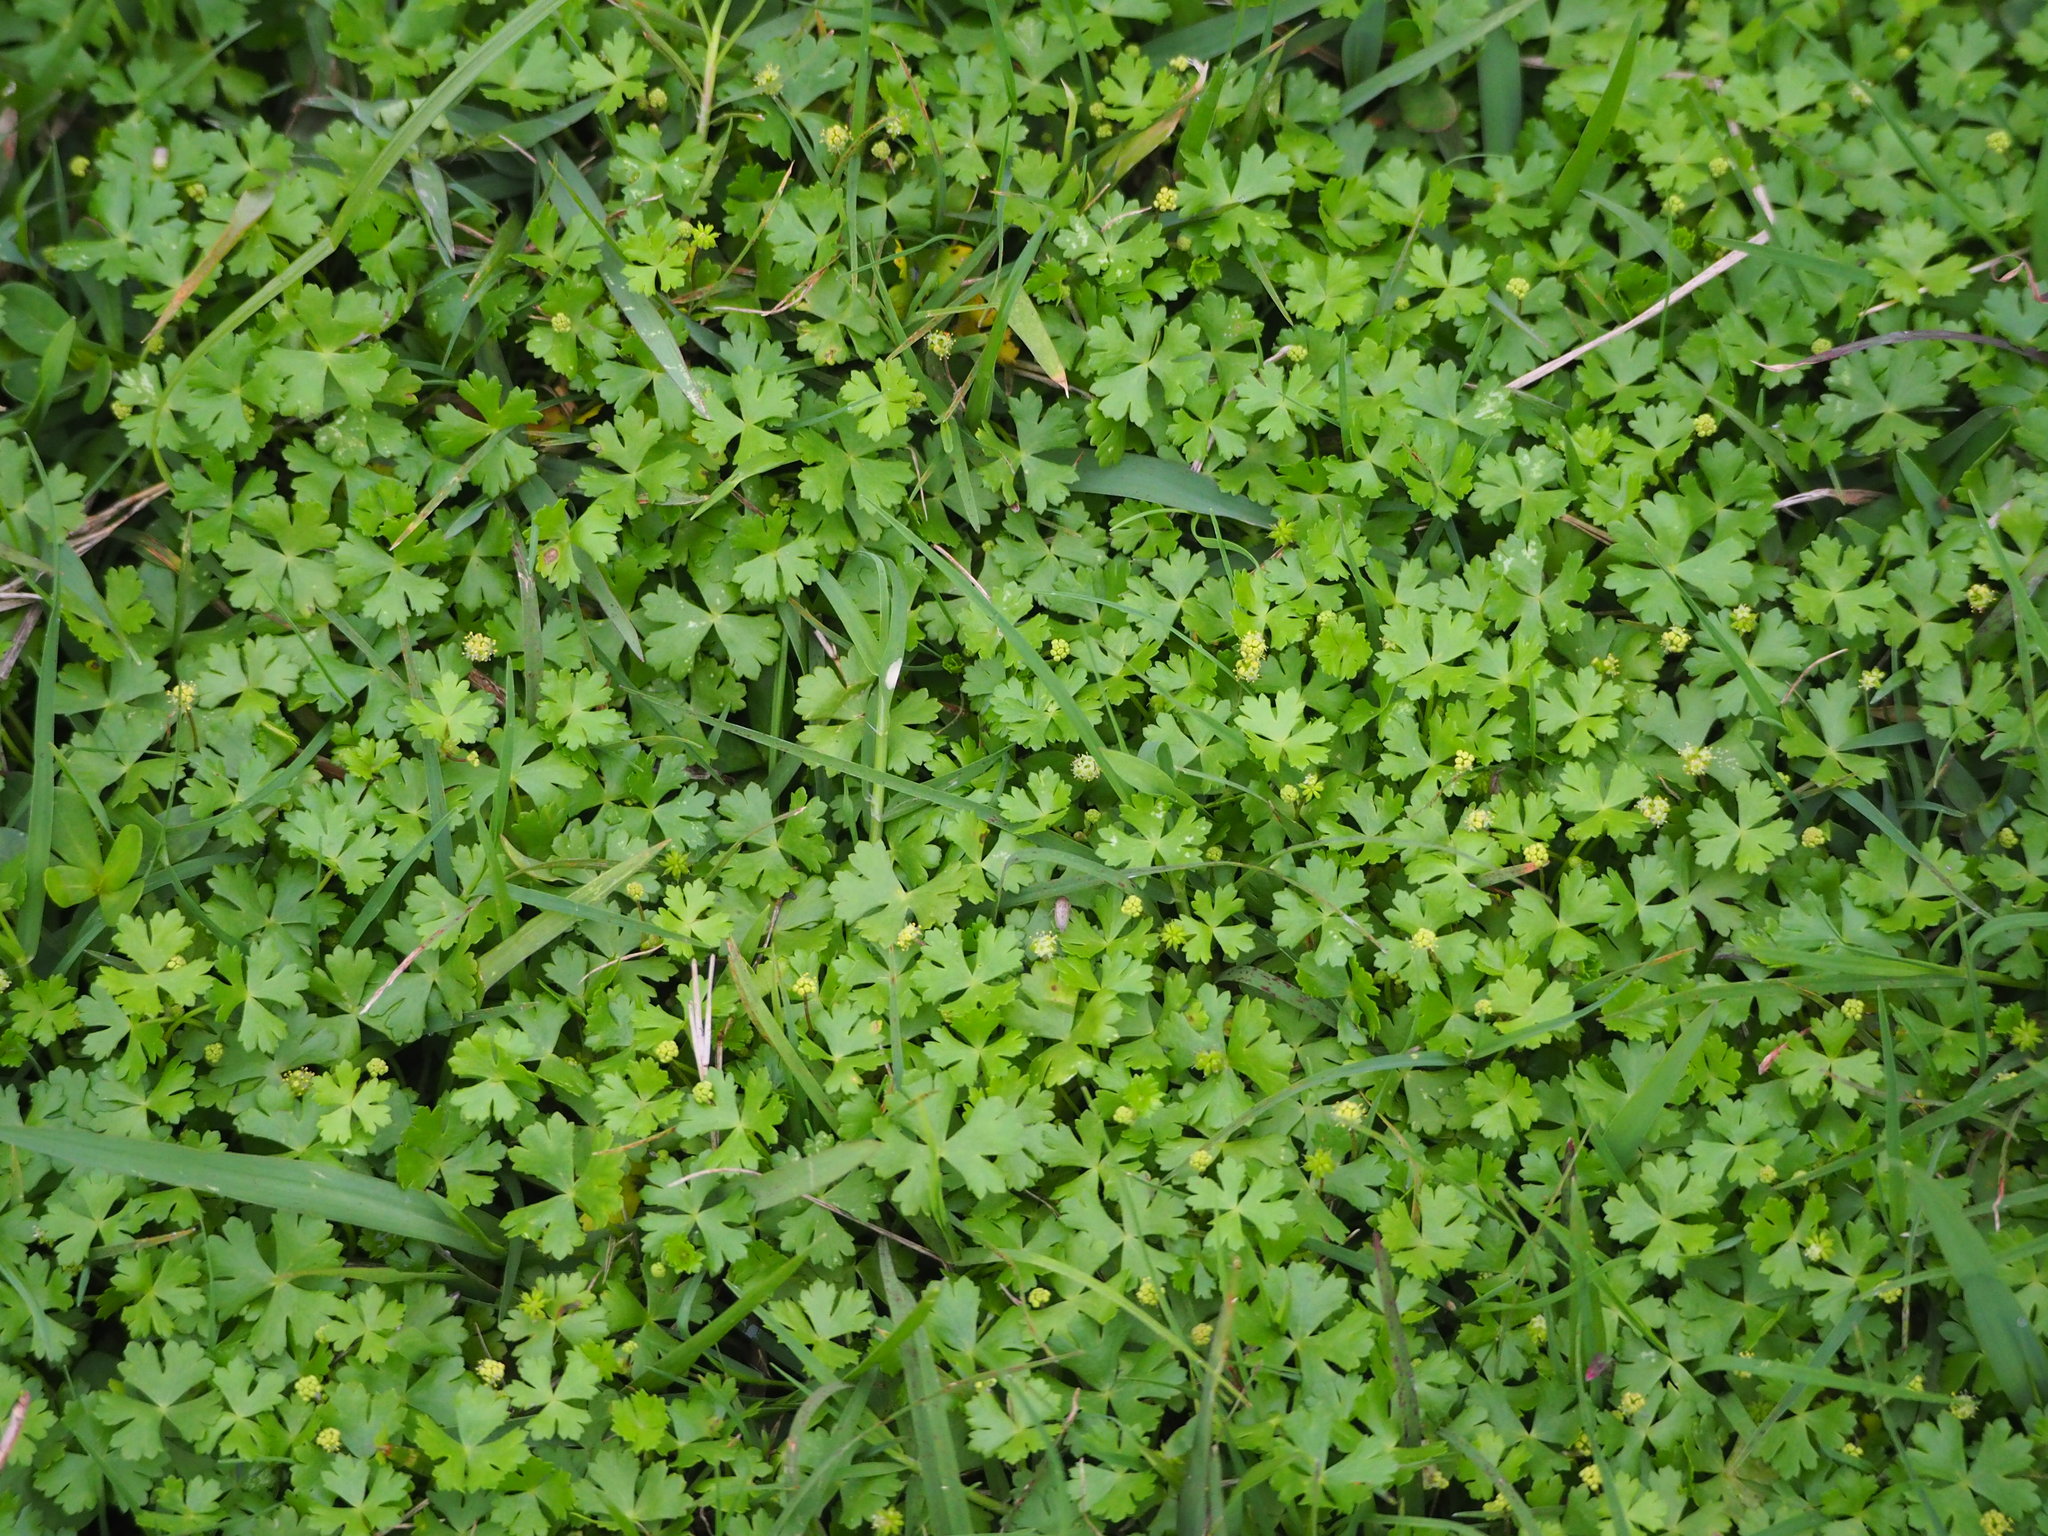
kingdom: Plantae
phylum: Tracheophyta
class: Magnoliopsida
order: Apiales
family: Araliaceae
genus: Hydrocotyle
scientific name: Hydrocotyle batrachium
